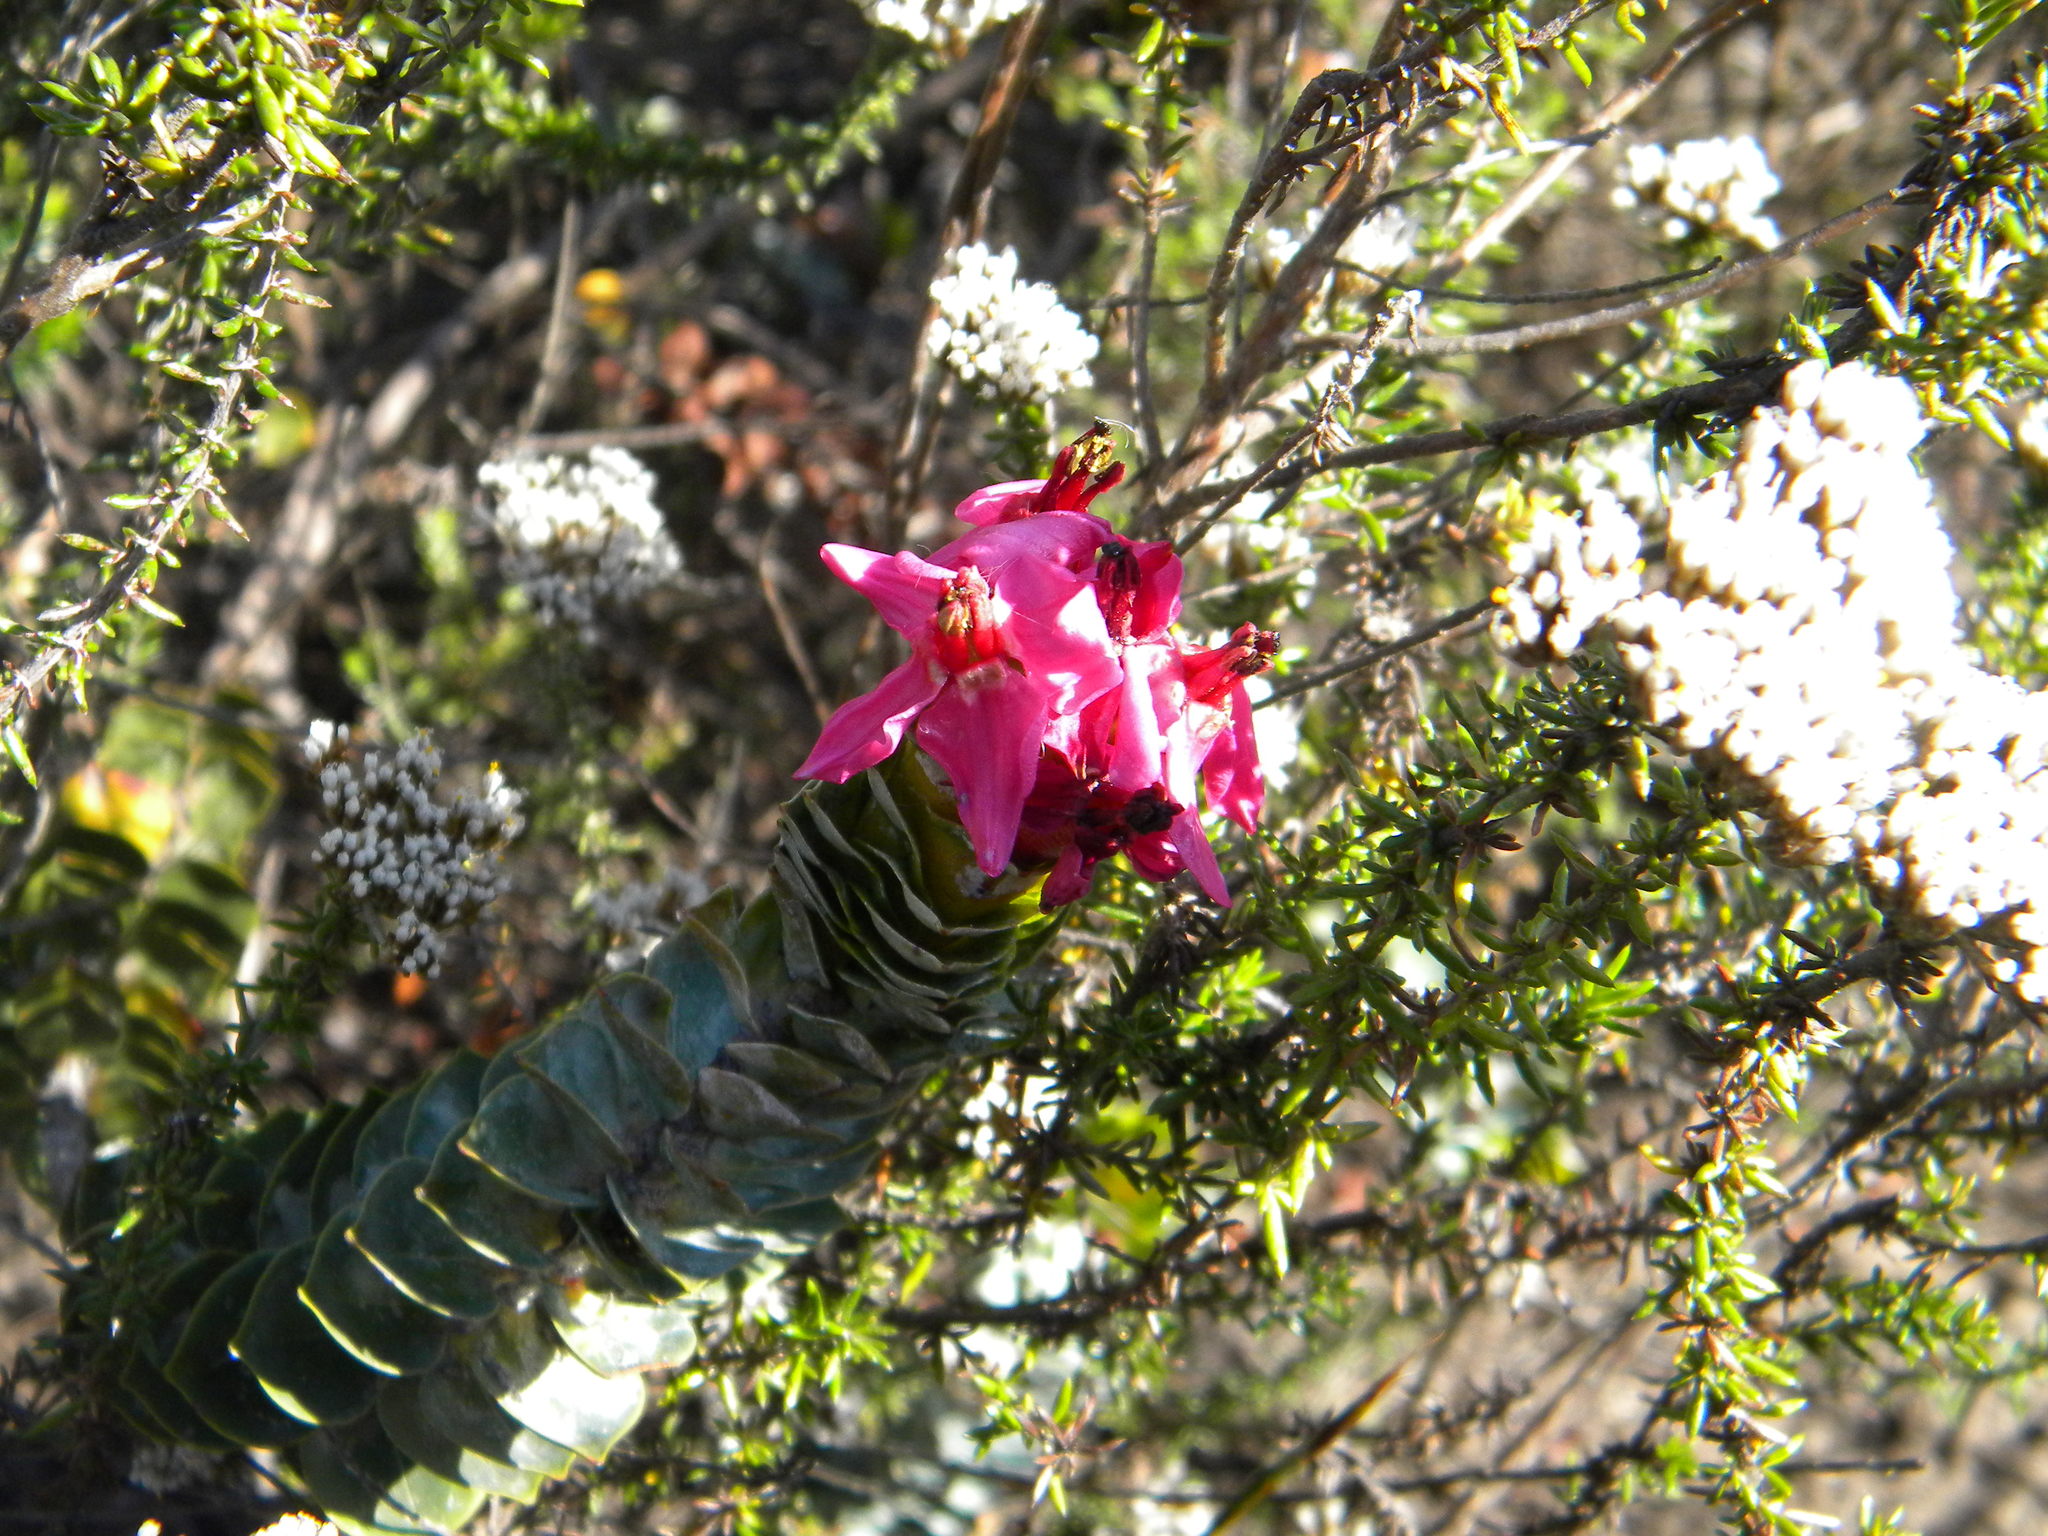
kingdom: Plantae
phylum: Tracheophyta
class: Magnoliopsida
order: Myrtales
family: Penaeaceae
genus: Saltera
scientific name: Saltera sarcocolla
